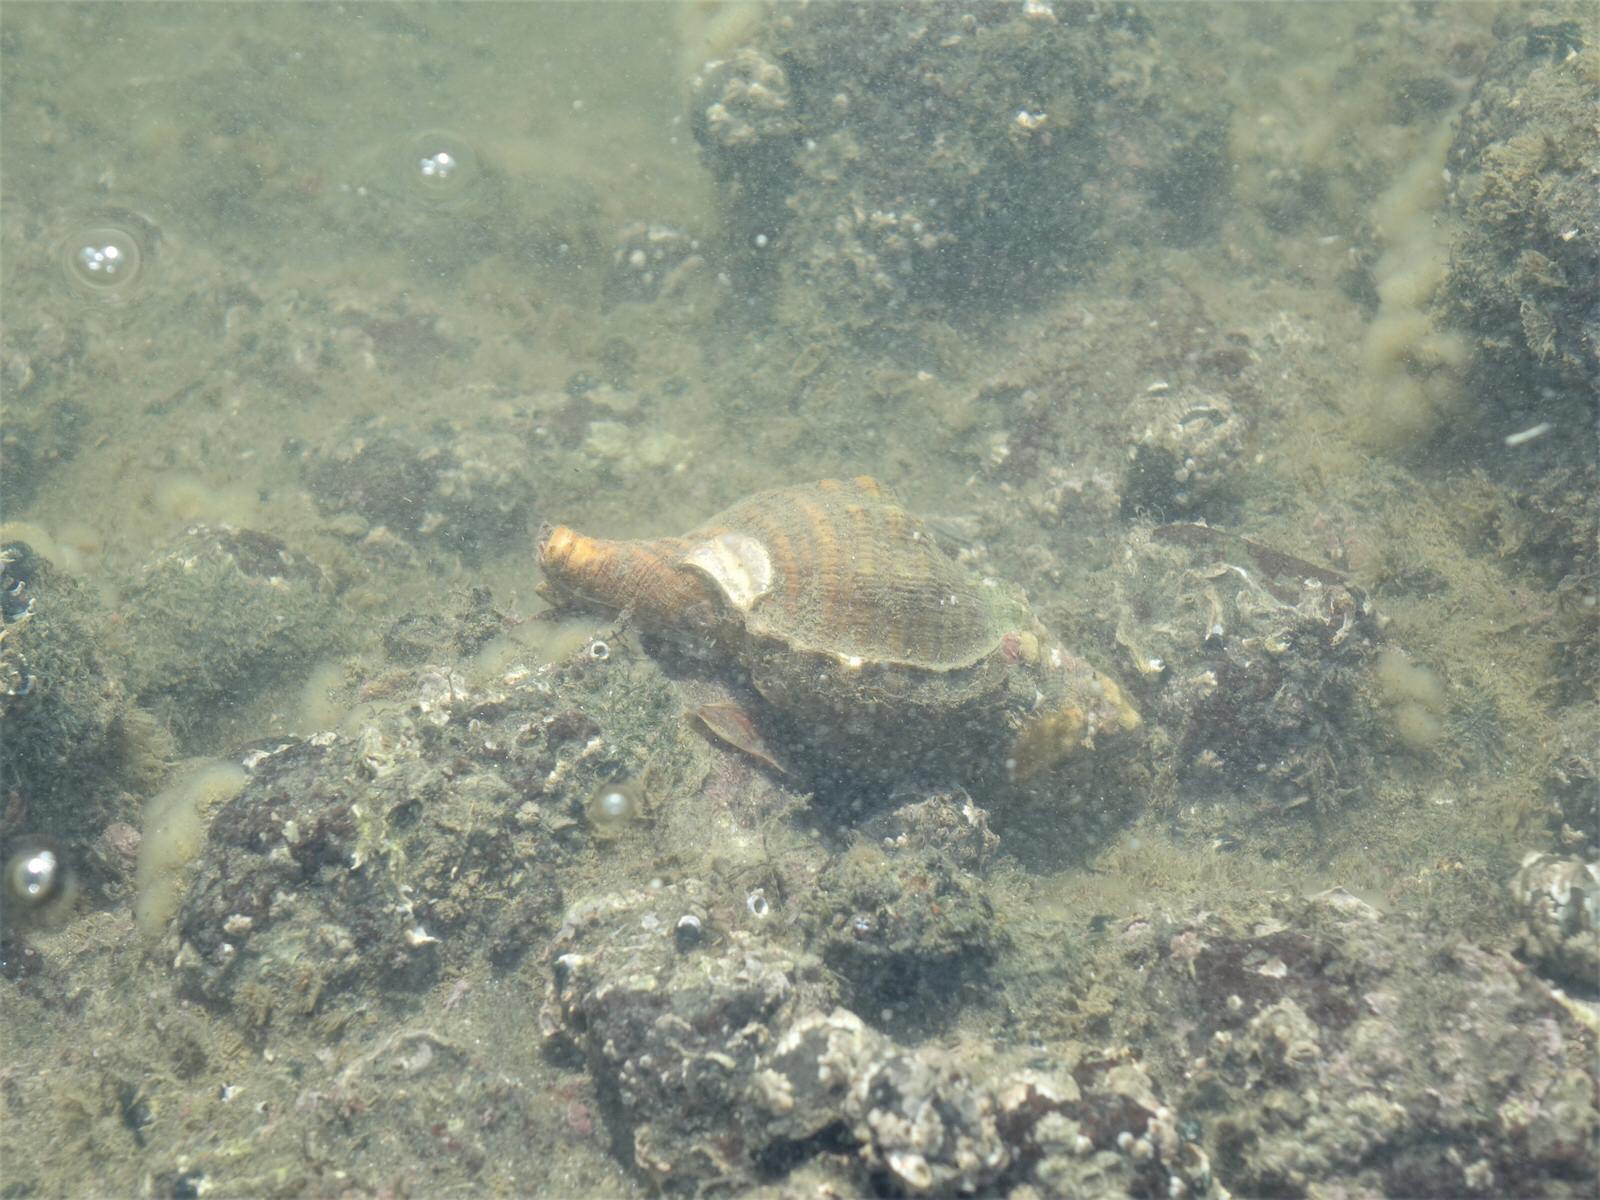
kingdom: Animalia
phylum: Mollusca
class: Gastropoda
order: Littorinimorpha
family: Cymatiidae
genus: Cabestana
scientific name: Cabestana spengleri
